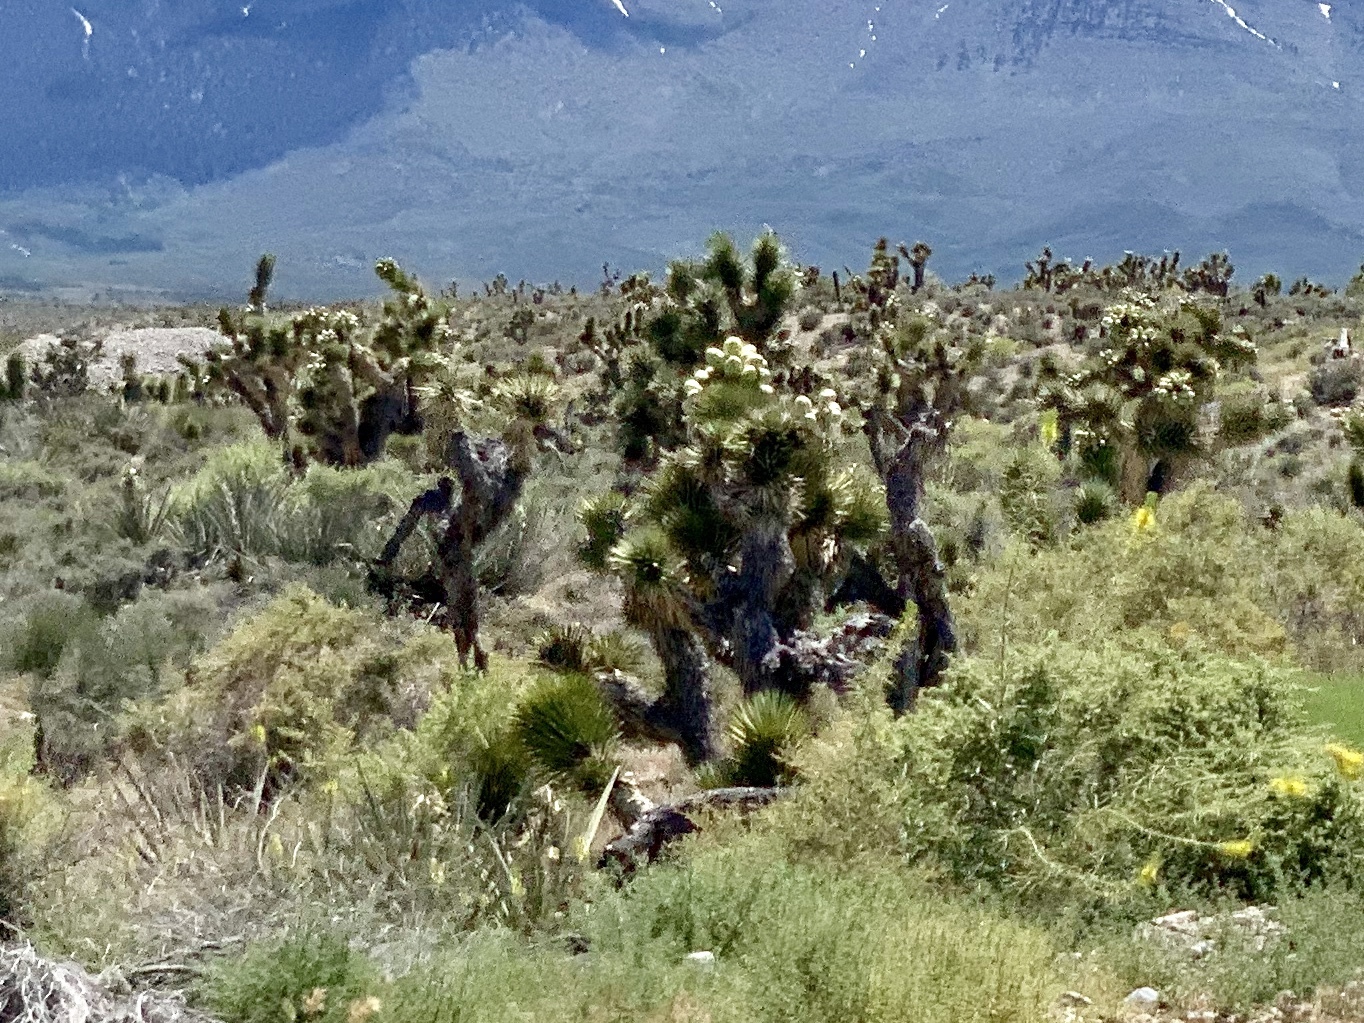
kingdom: Plantae
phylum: Tracheophyta
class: Liliopsida
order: Asparagales
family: Asparagaceae
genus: Yucca
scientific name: Yucca brevifolia
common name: Joshua tree
